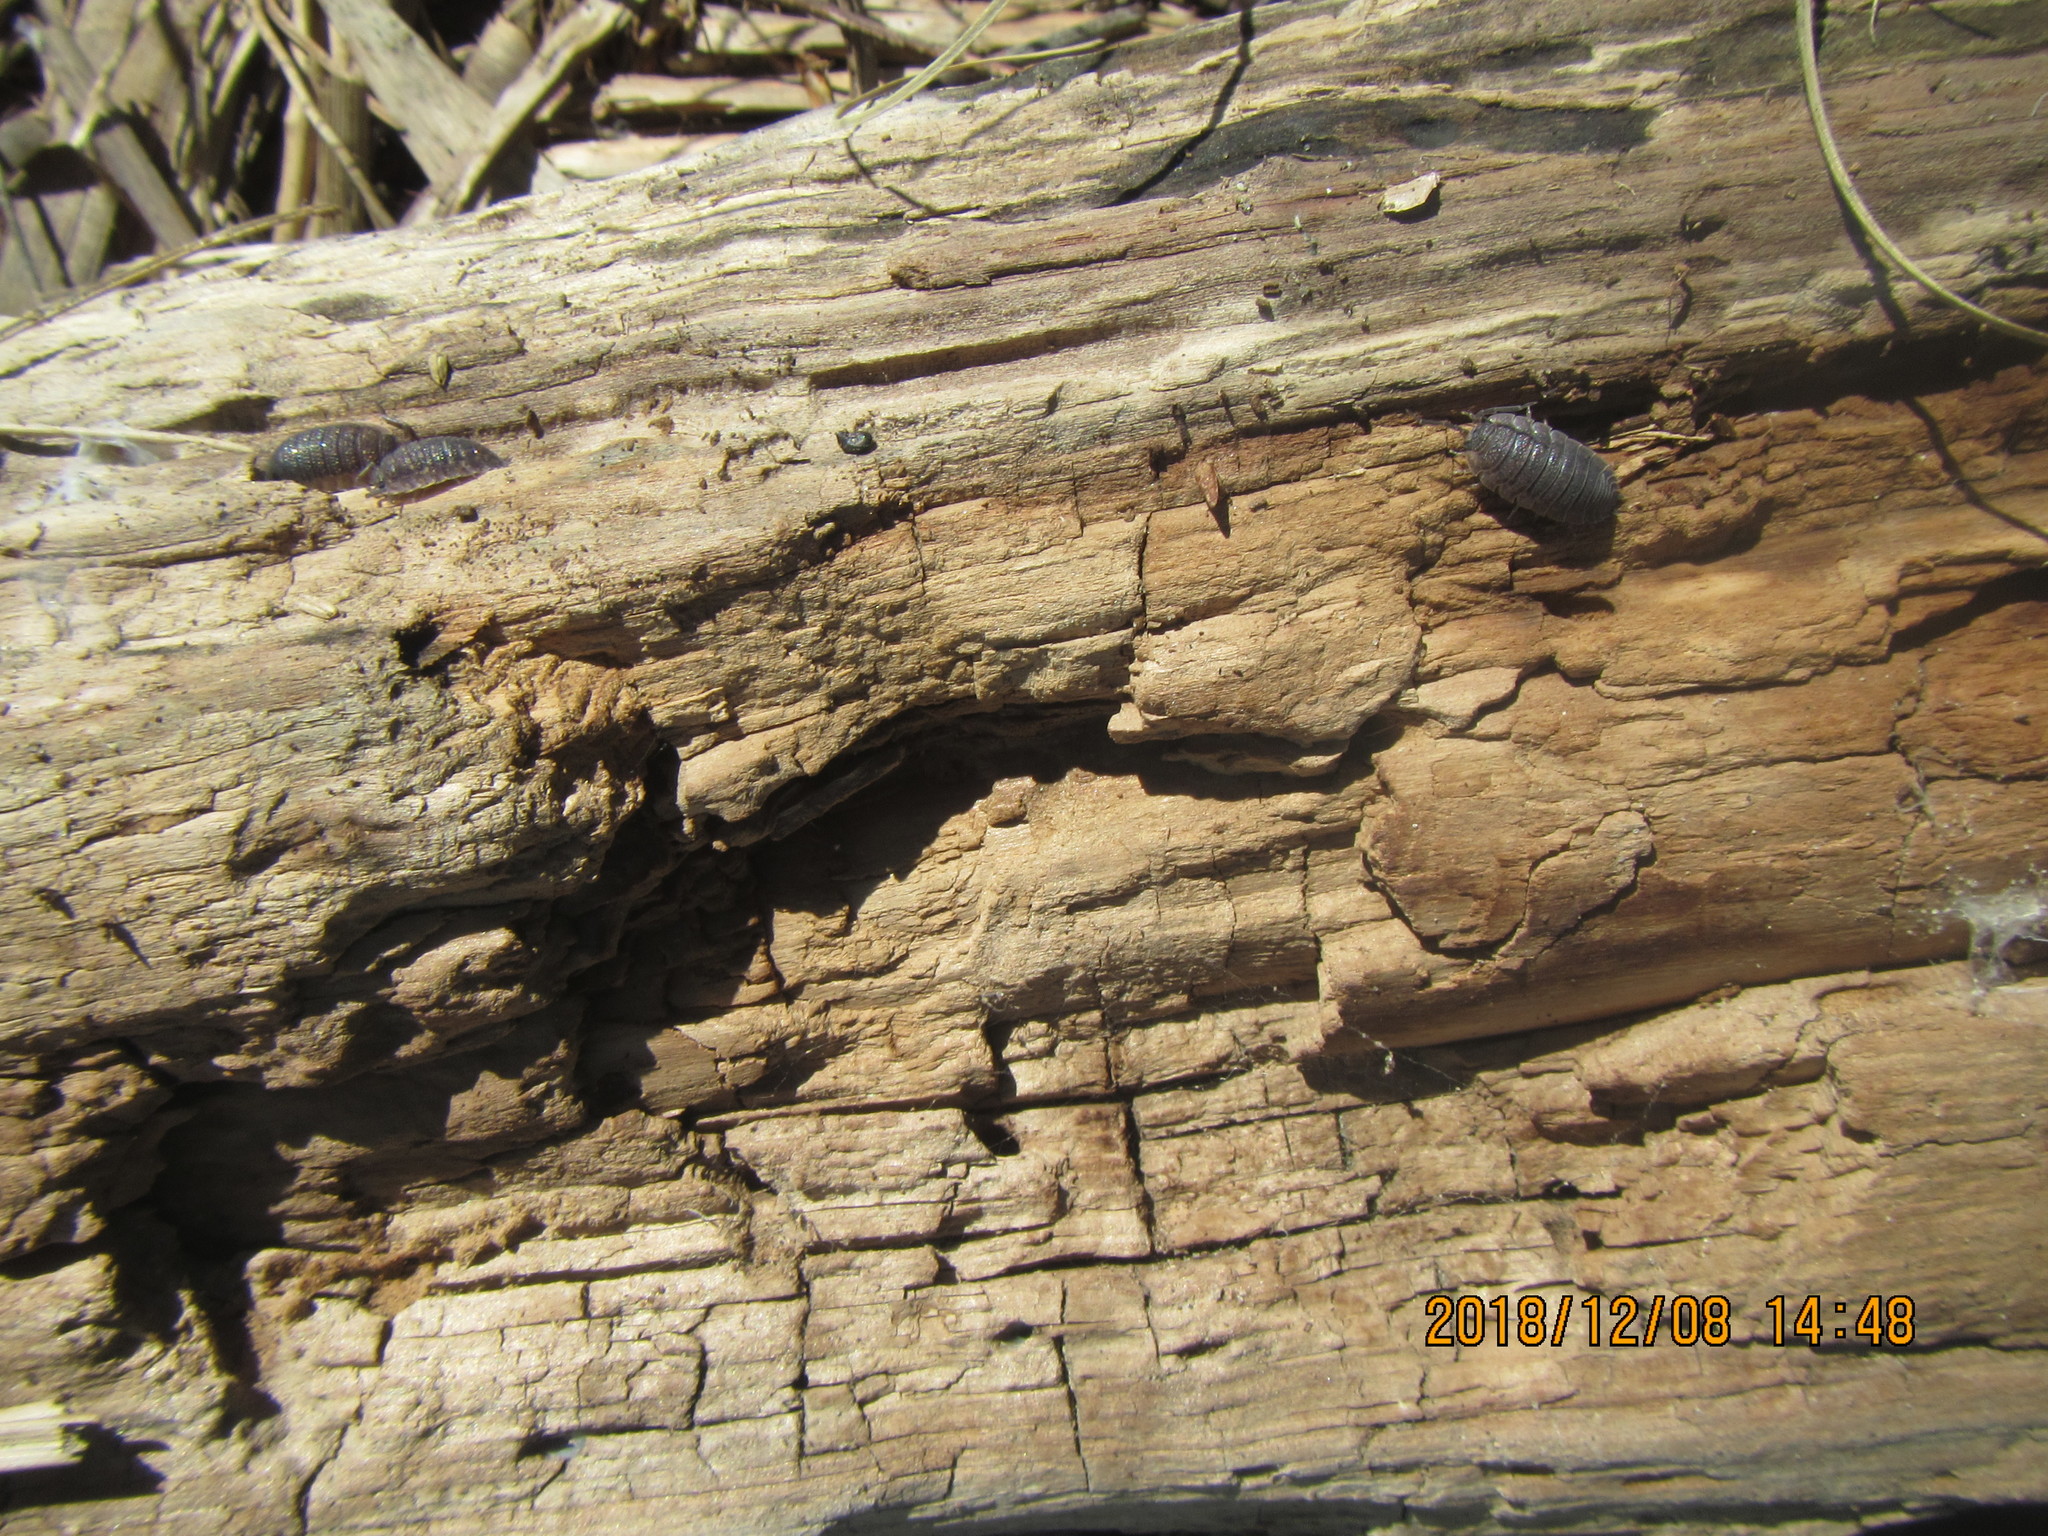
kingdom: Animalia
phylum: Arthropoda
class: Malacostraca
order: Isopoda
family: Porcellionidae
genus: Porcellio
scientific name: Porcellio scaber
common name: Common rough woodlouse
